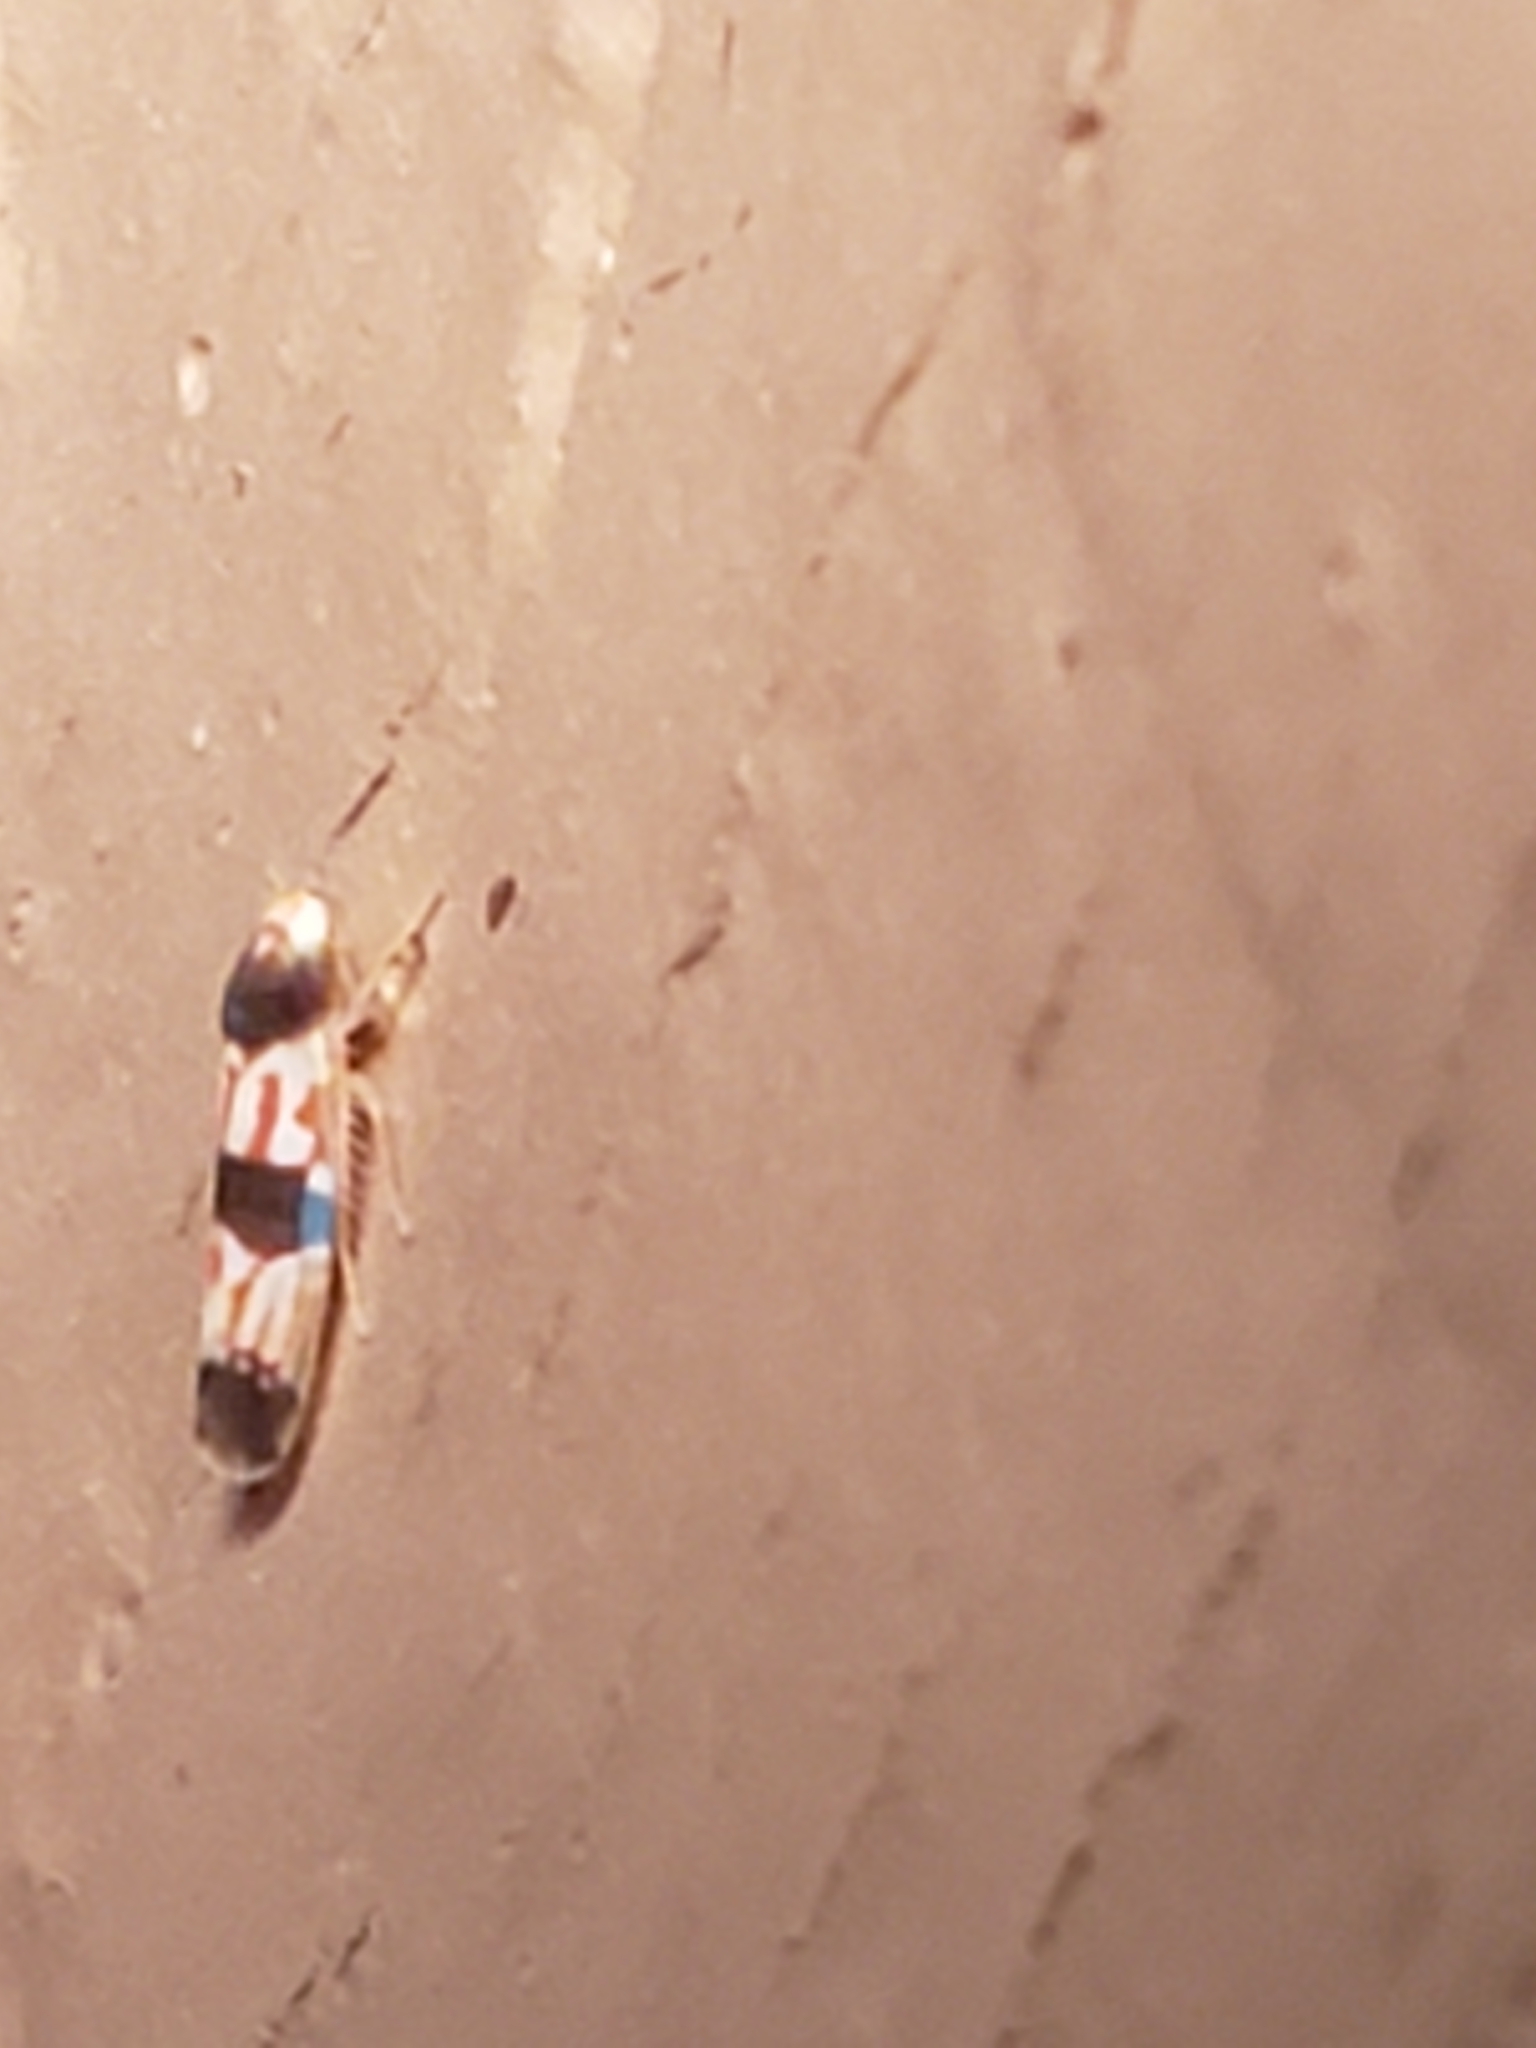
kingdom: Animalia
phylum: Arthropoda
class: Insecta
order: Hemiptera
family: Cicadellidae
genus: Erythroneura
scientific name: Erythroneura tricincta
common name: The threebanded grape leafhopper
